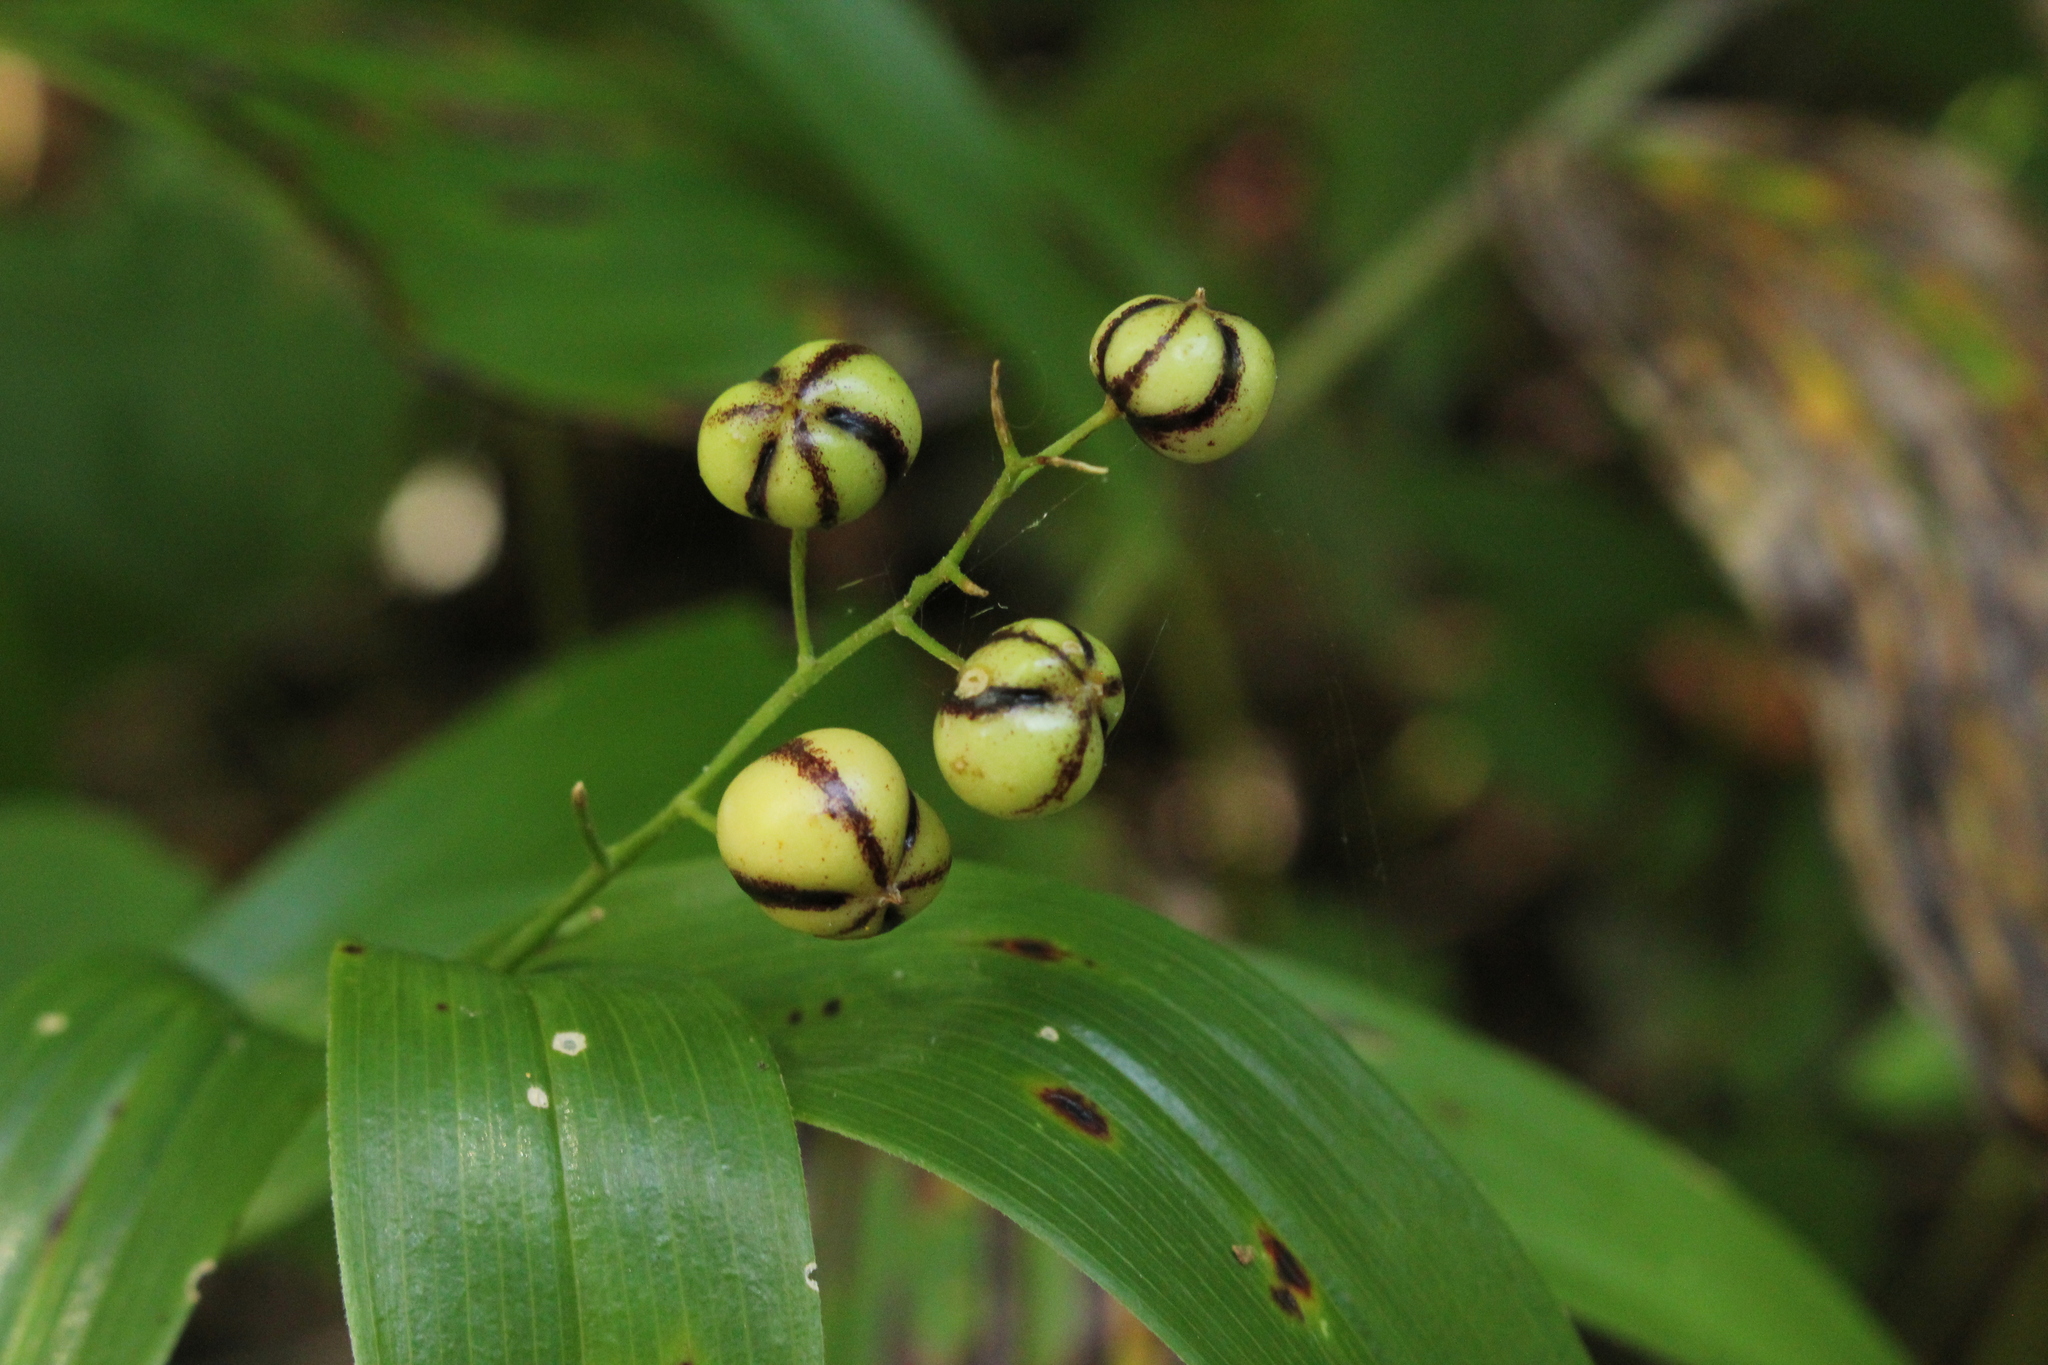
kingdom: Plantae
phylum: Tracheophyta
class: Liliopsida
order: Asparagales
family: Asparagaceae
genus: Maianthemum
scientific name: Maianthemum stellatum
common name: Little false solomon's seal
